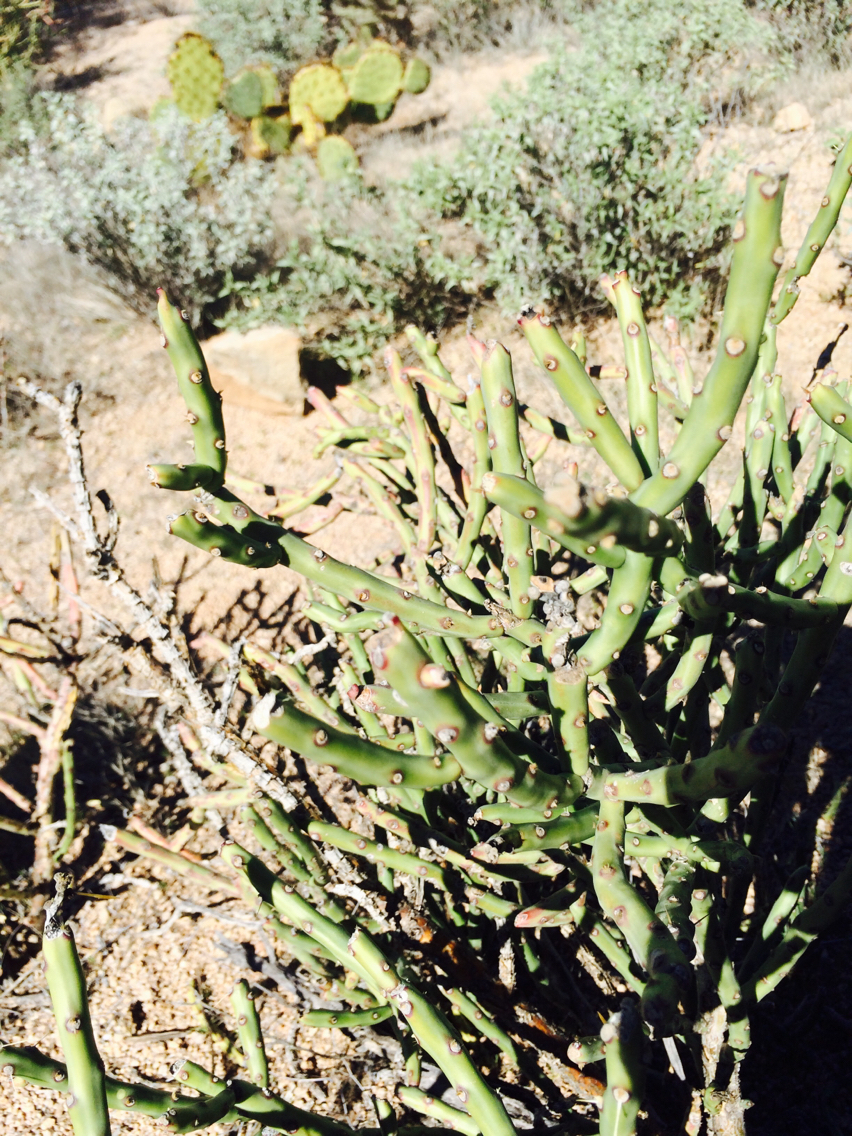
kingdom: Plantae
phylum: Tracheophyta
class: Magnoliopsida
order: Caryophyllales
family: Cactaceae
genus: Cylindropuntia
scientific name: Cylindropuntia arbuscula
